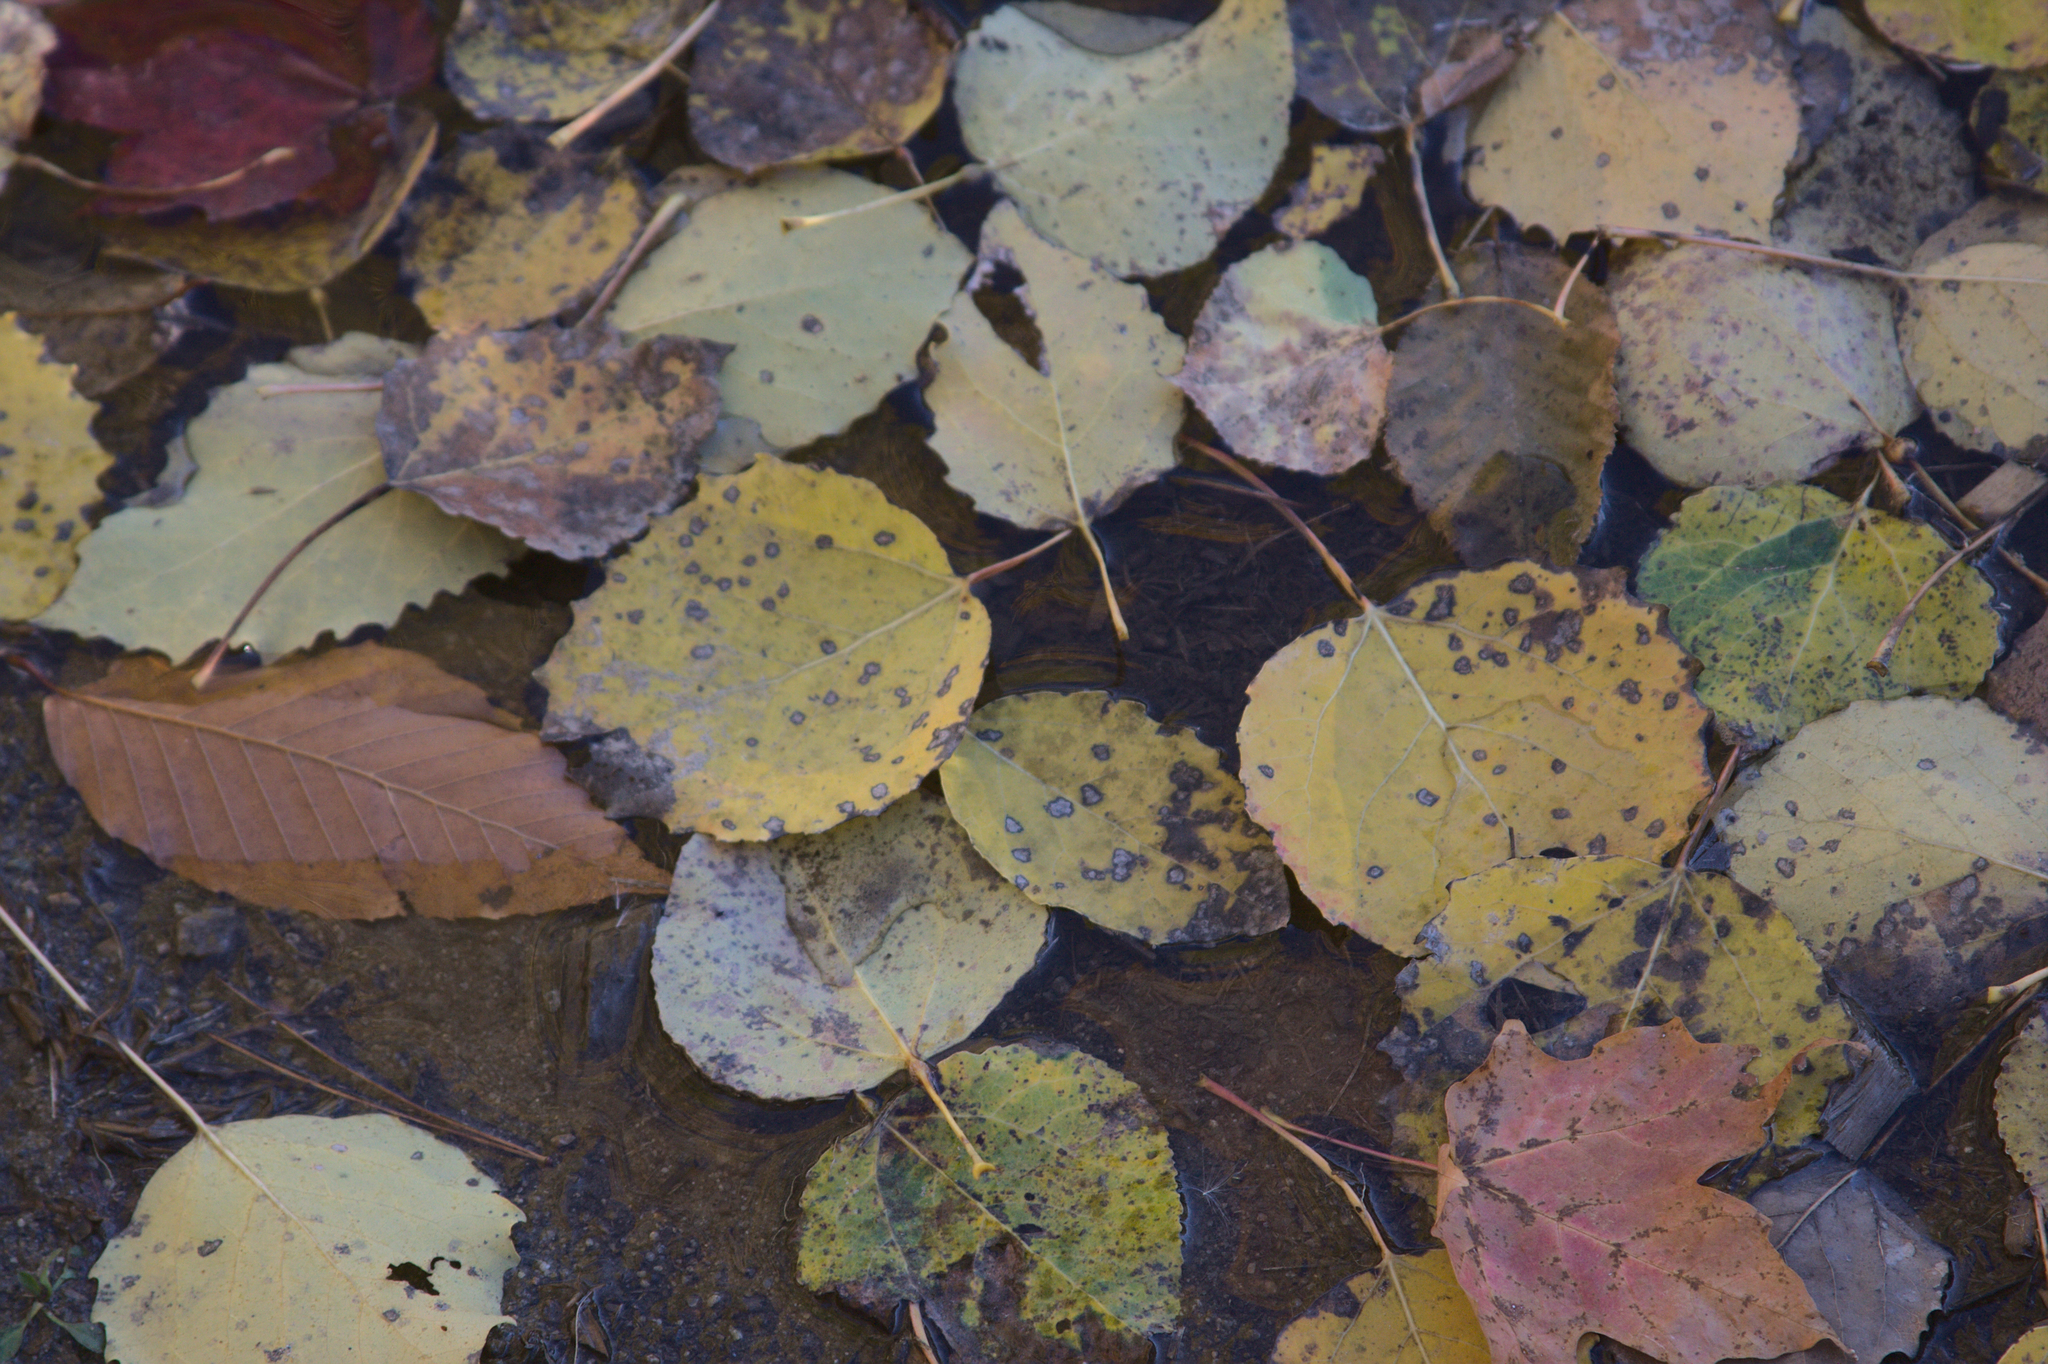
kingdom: Plantae
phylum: Tracheophyta
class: Magnoliopsida
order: Malpighiales
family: Salicaceae
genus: Populus
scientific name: Populus grandidentata
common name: Bigtooth aspen
